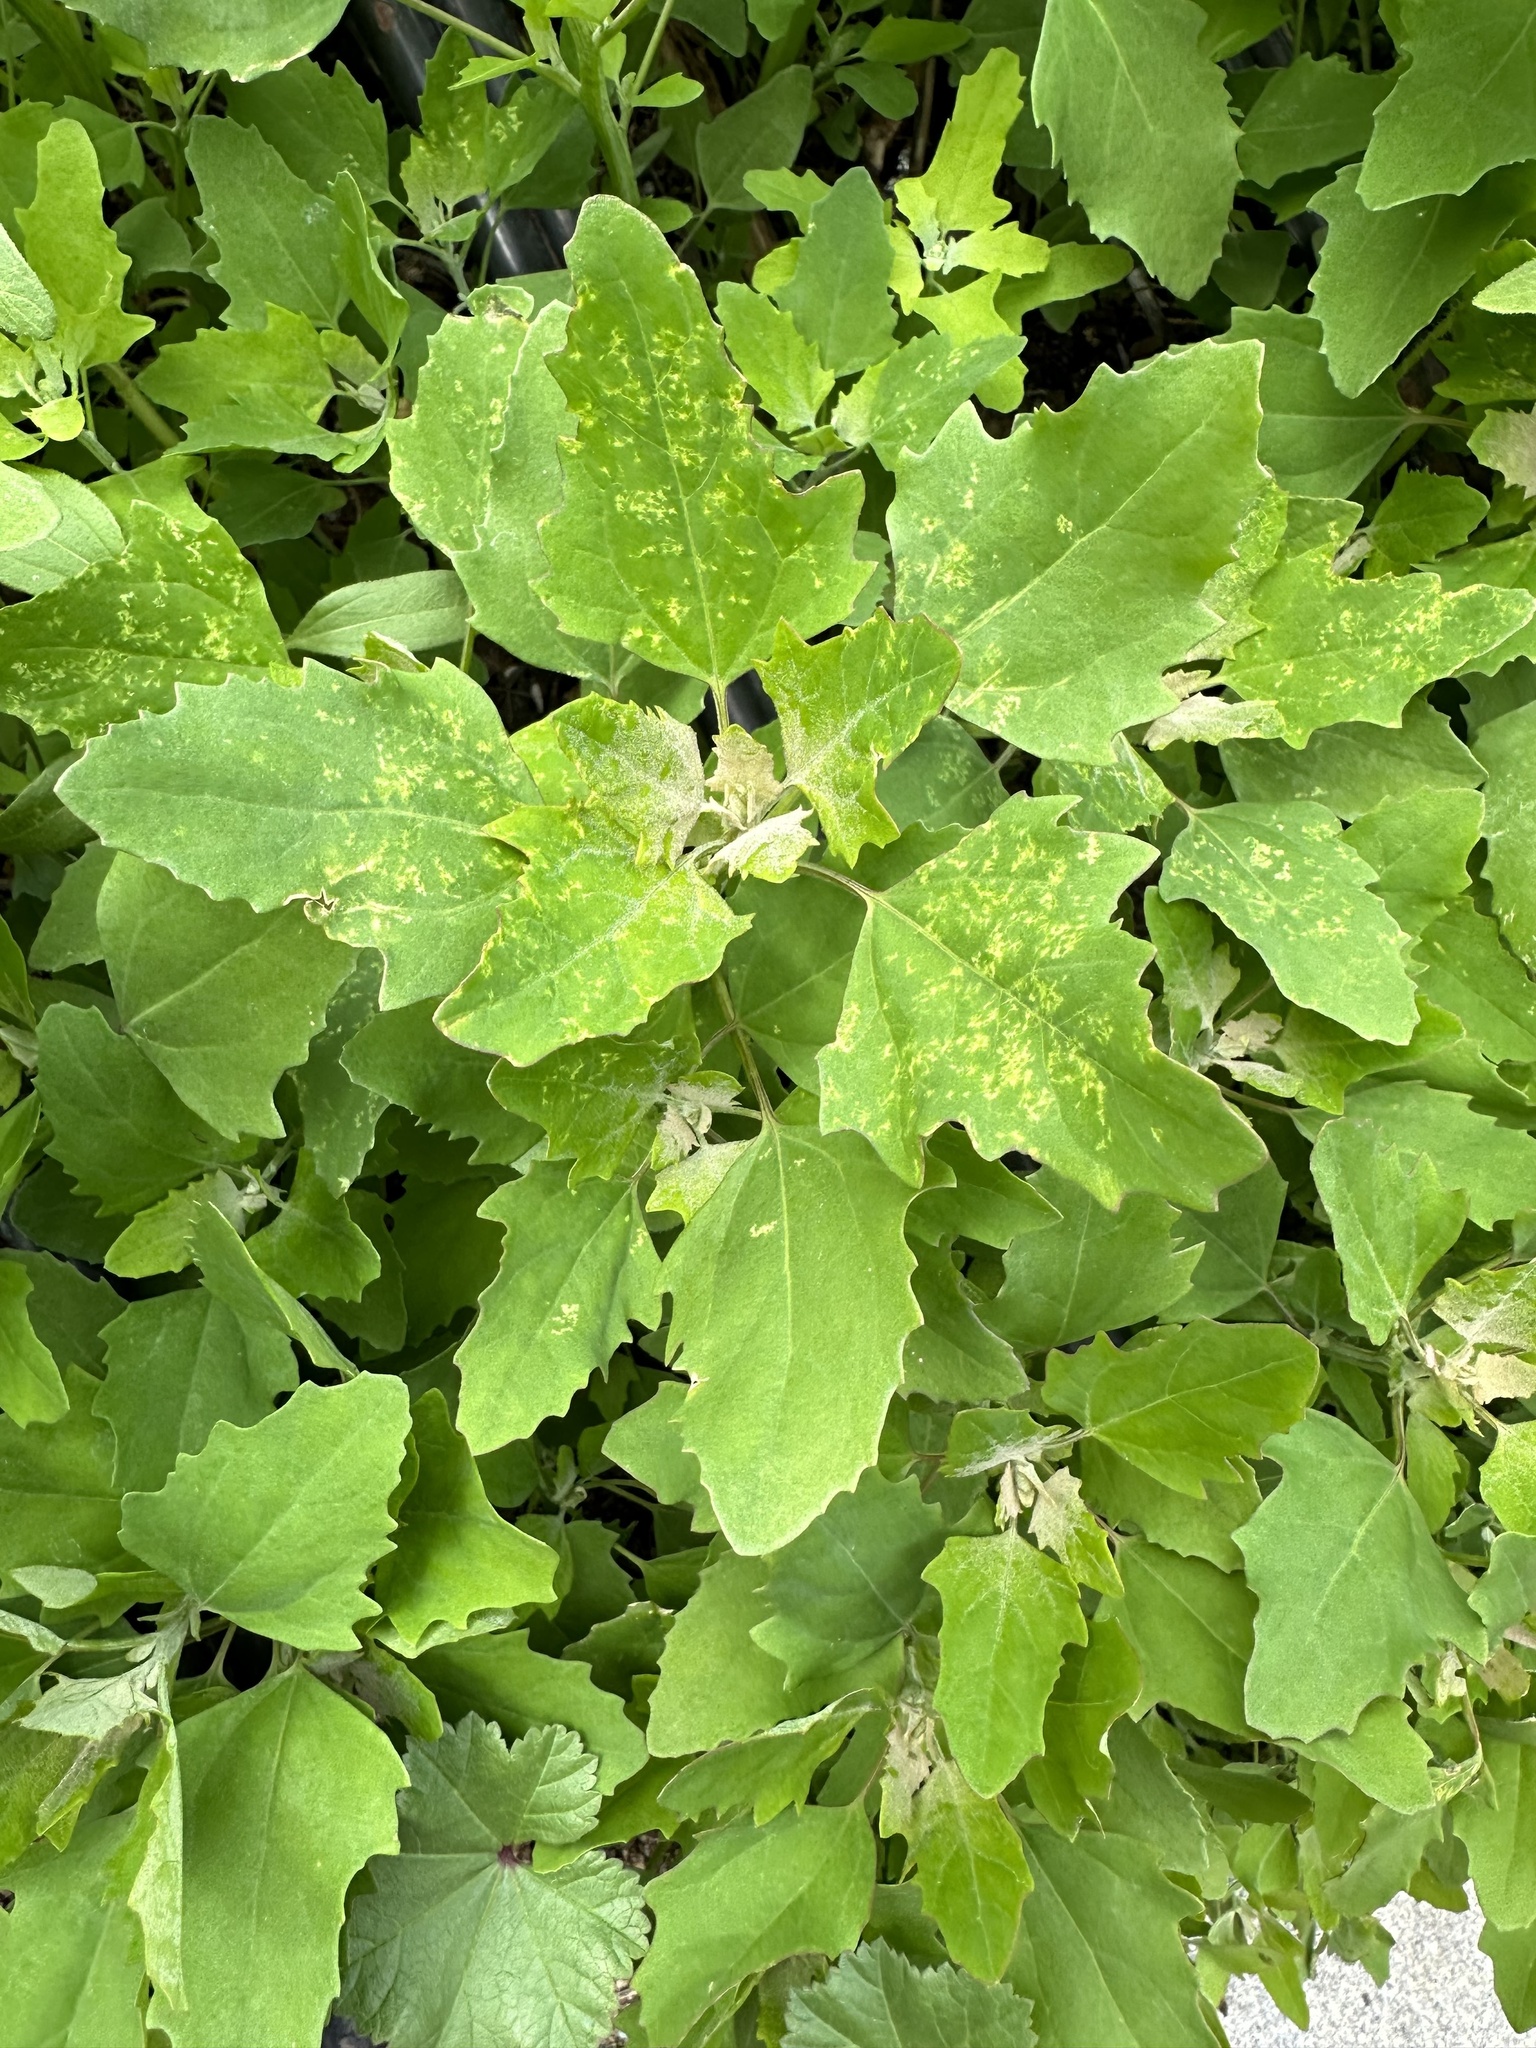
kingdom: Plantae
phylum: Tracheophyta
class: Magnoliopsida
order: Caryophyllales
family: Amaranthaceae
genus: Chenopodium
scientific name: Chenopodium album
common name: Fat-hen
